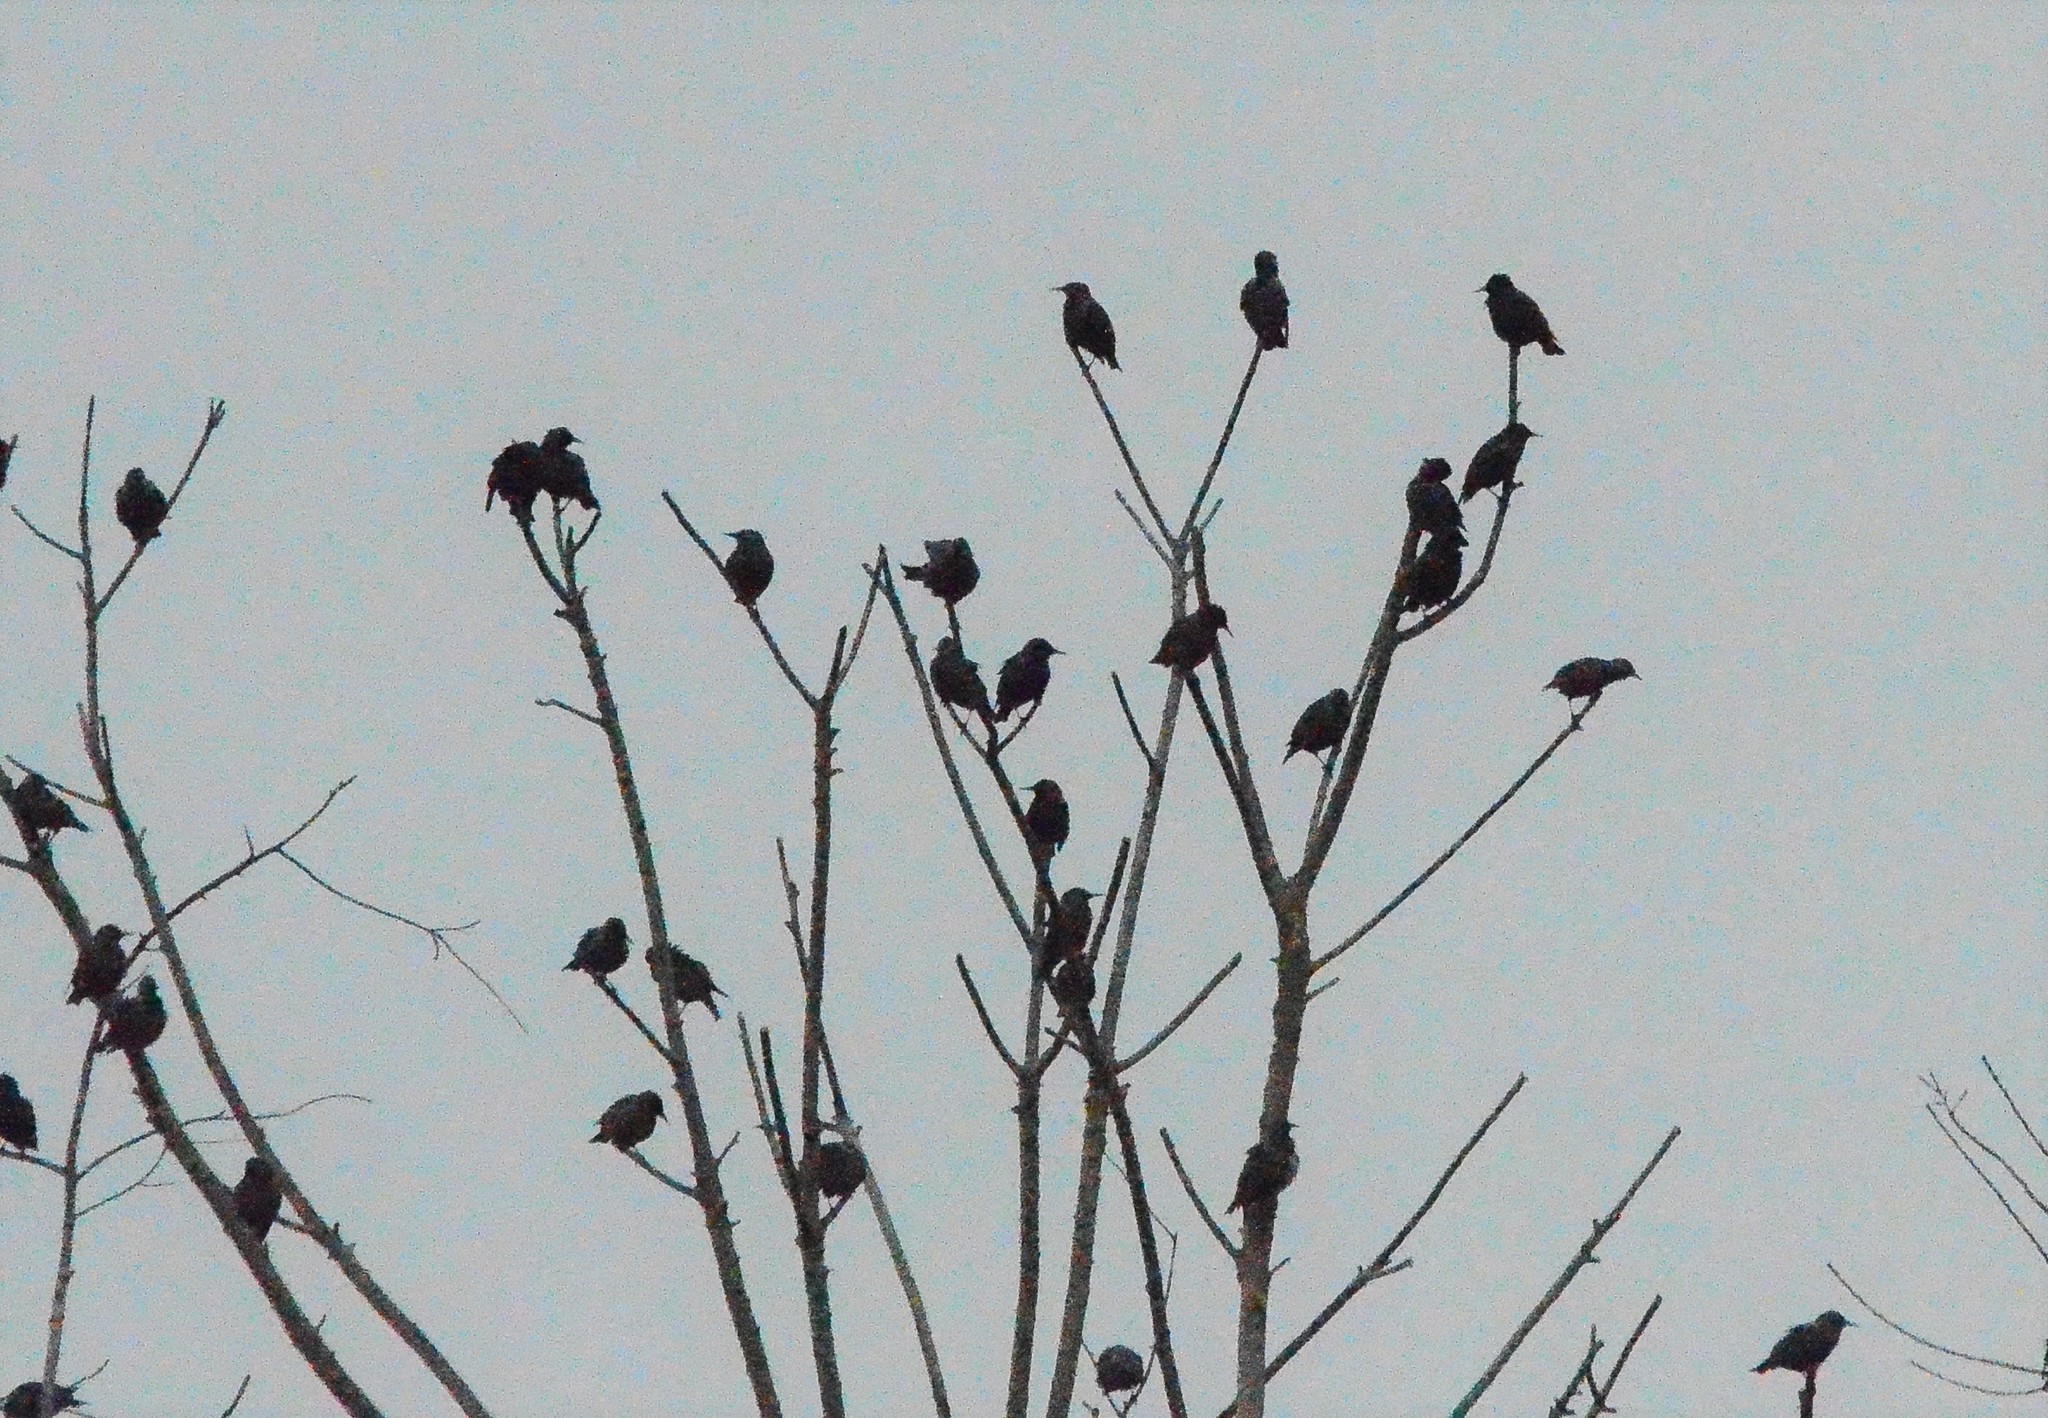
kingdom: Animalia
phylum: Chordata
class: Aves
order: Passeriformes
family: Sturnidae
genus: Sturnus
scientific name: Sturnus vulgaris
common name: Common starling
